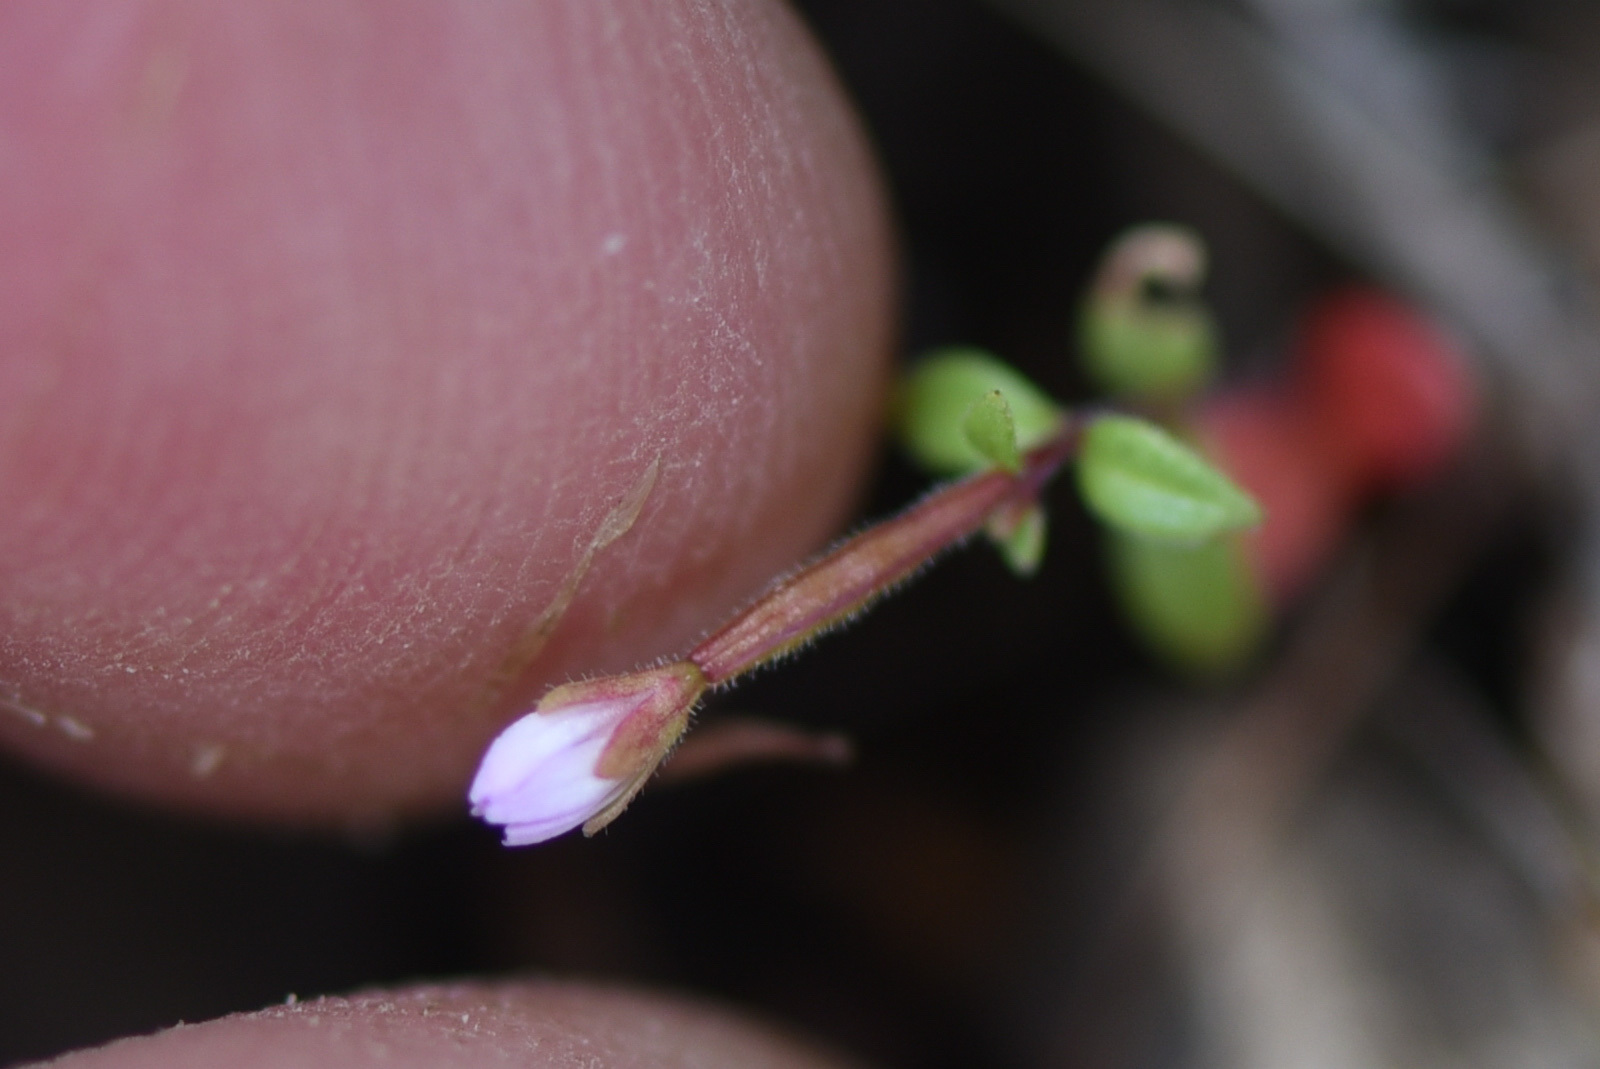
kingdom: Plantae
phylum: Tracheophyta
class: Magnoliopsida
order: Myrtales
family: Onagraceae
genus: Epilobium
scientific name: Epilobium minutum
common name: Chaparral willowherb
